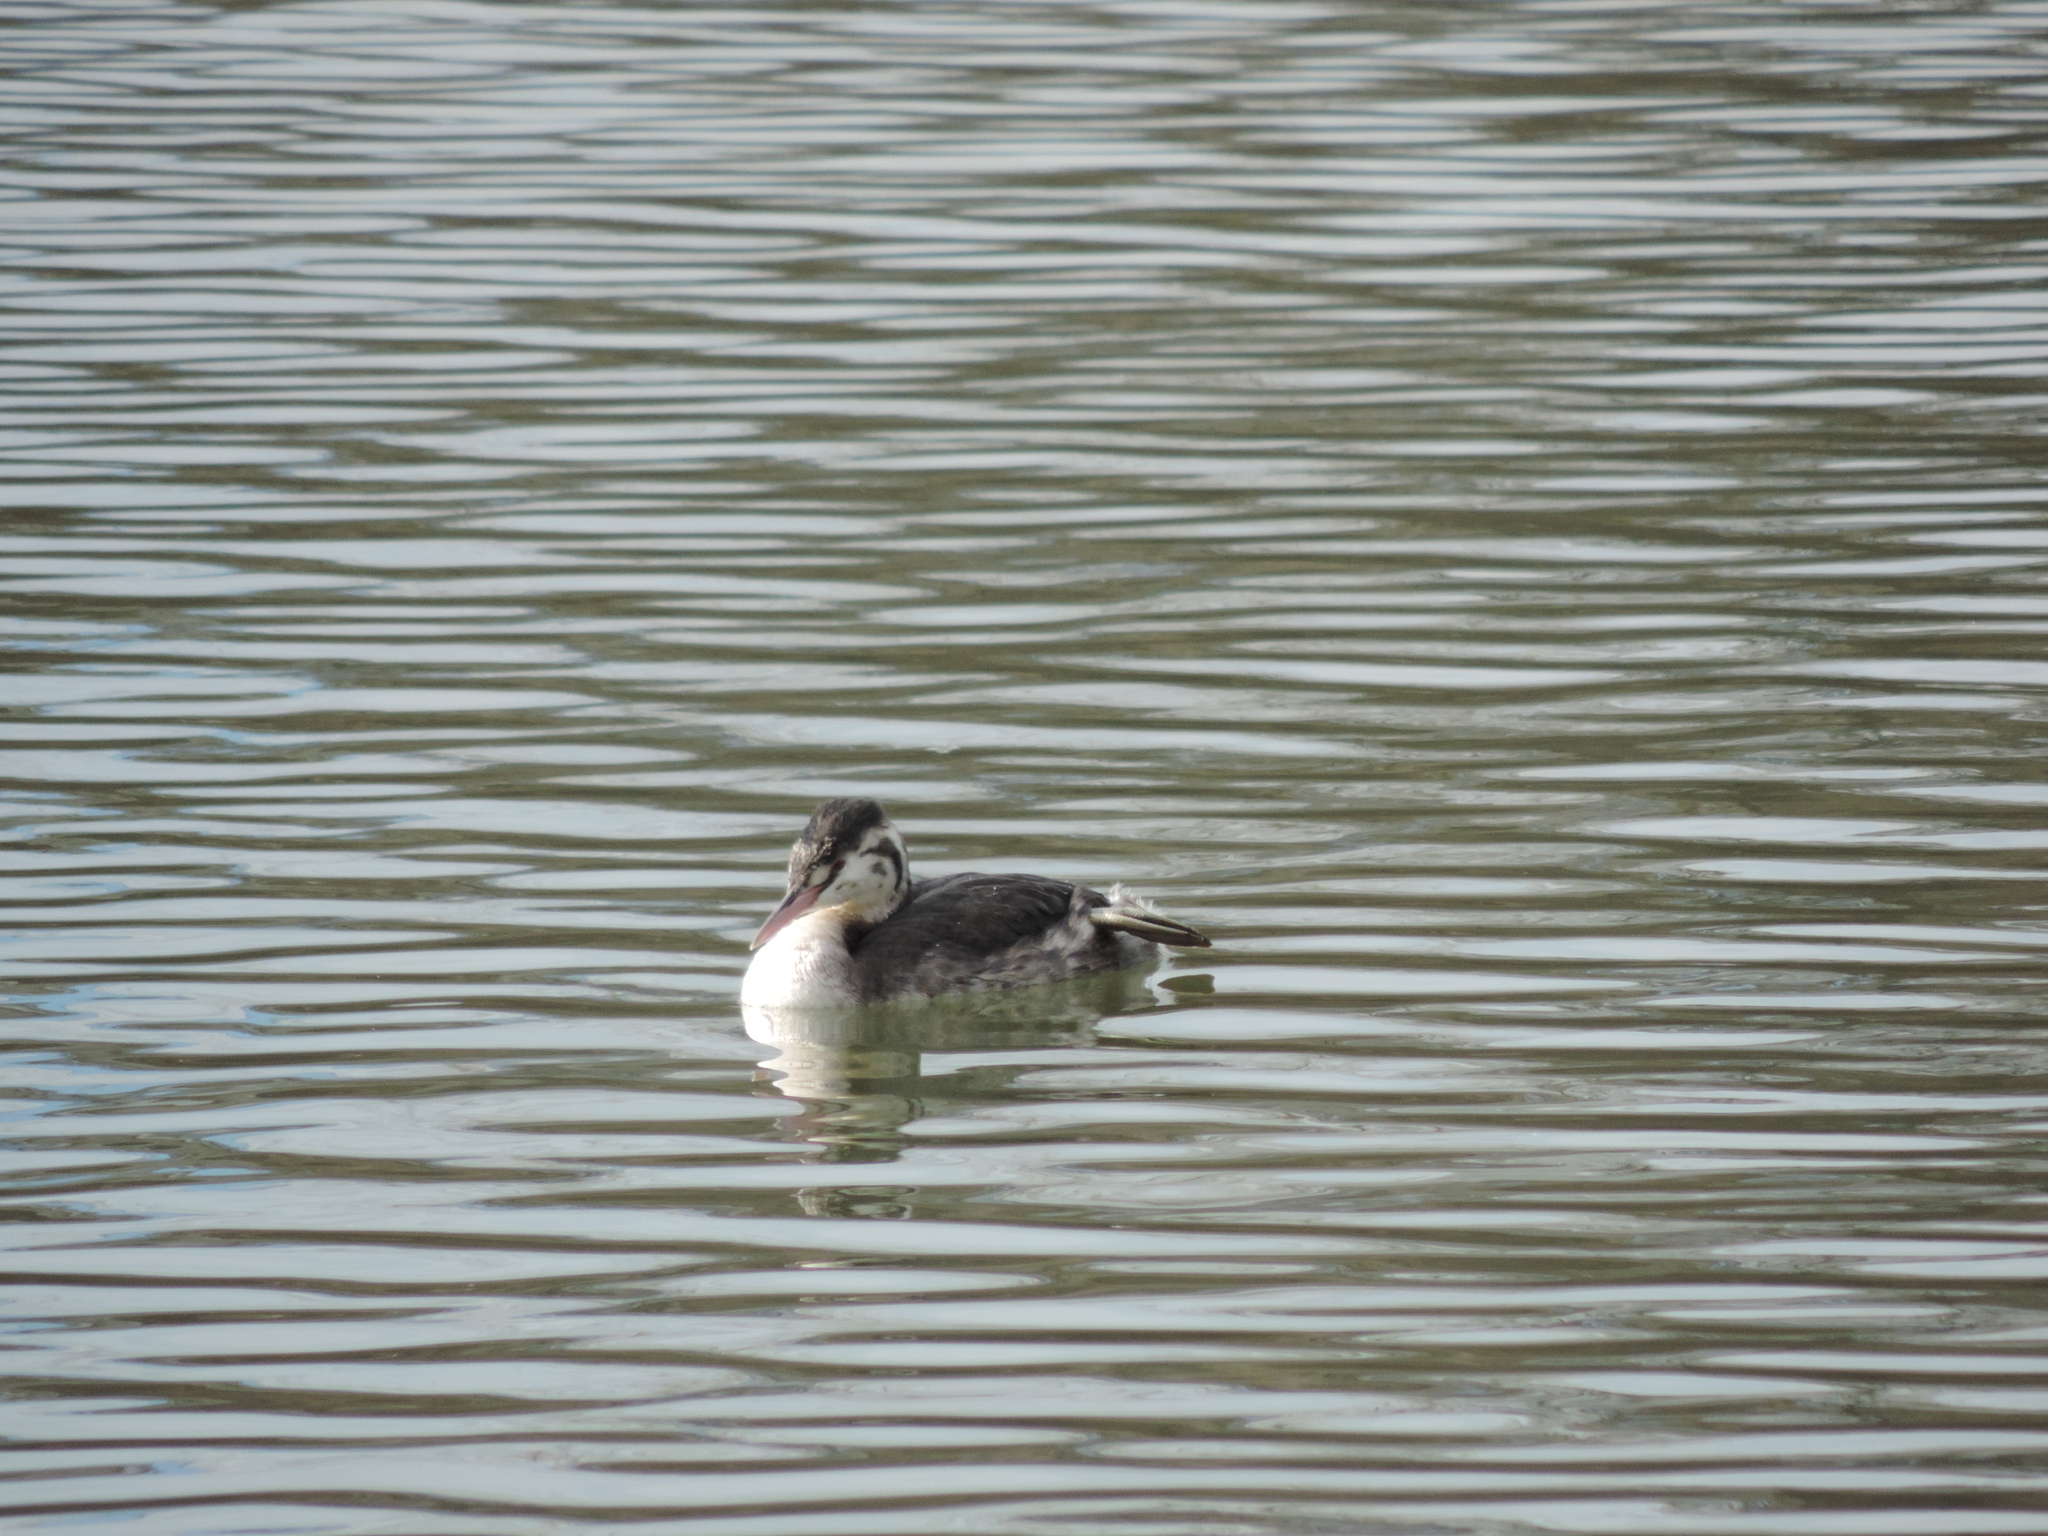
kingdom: Animalia
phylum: Chordata
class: Aves
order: Podicipediformes
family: Podicipedidae
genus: Podiceps
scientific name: Podiceps cristatus
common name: Great crested grebe
